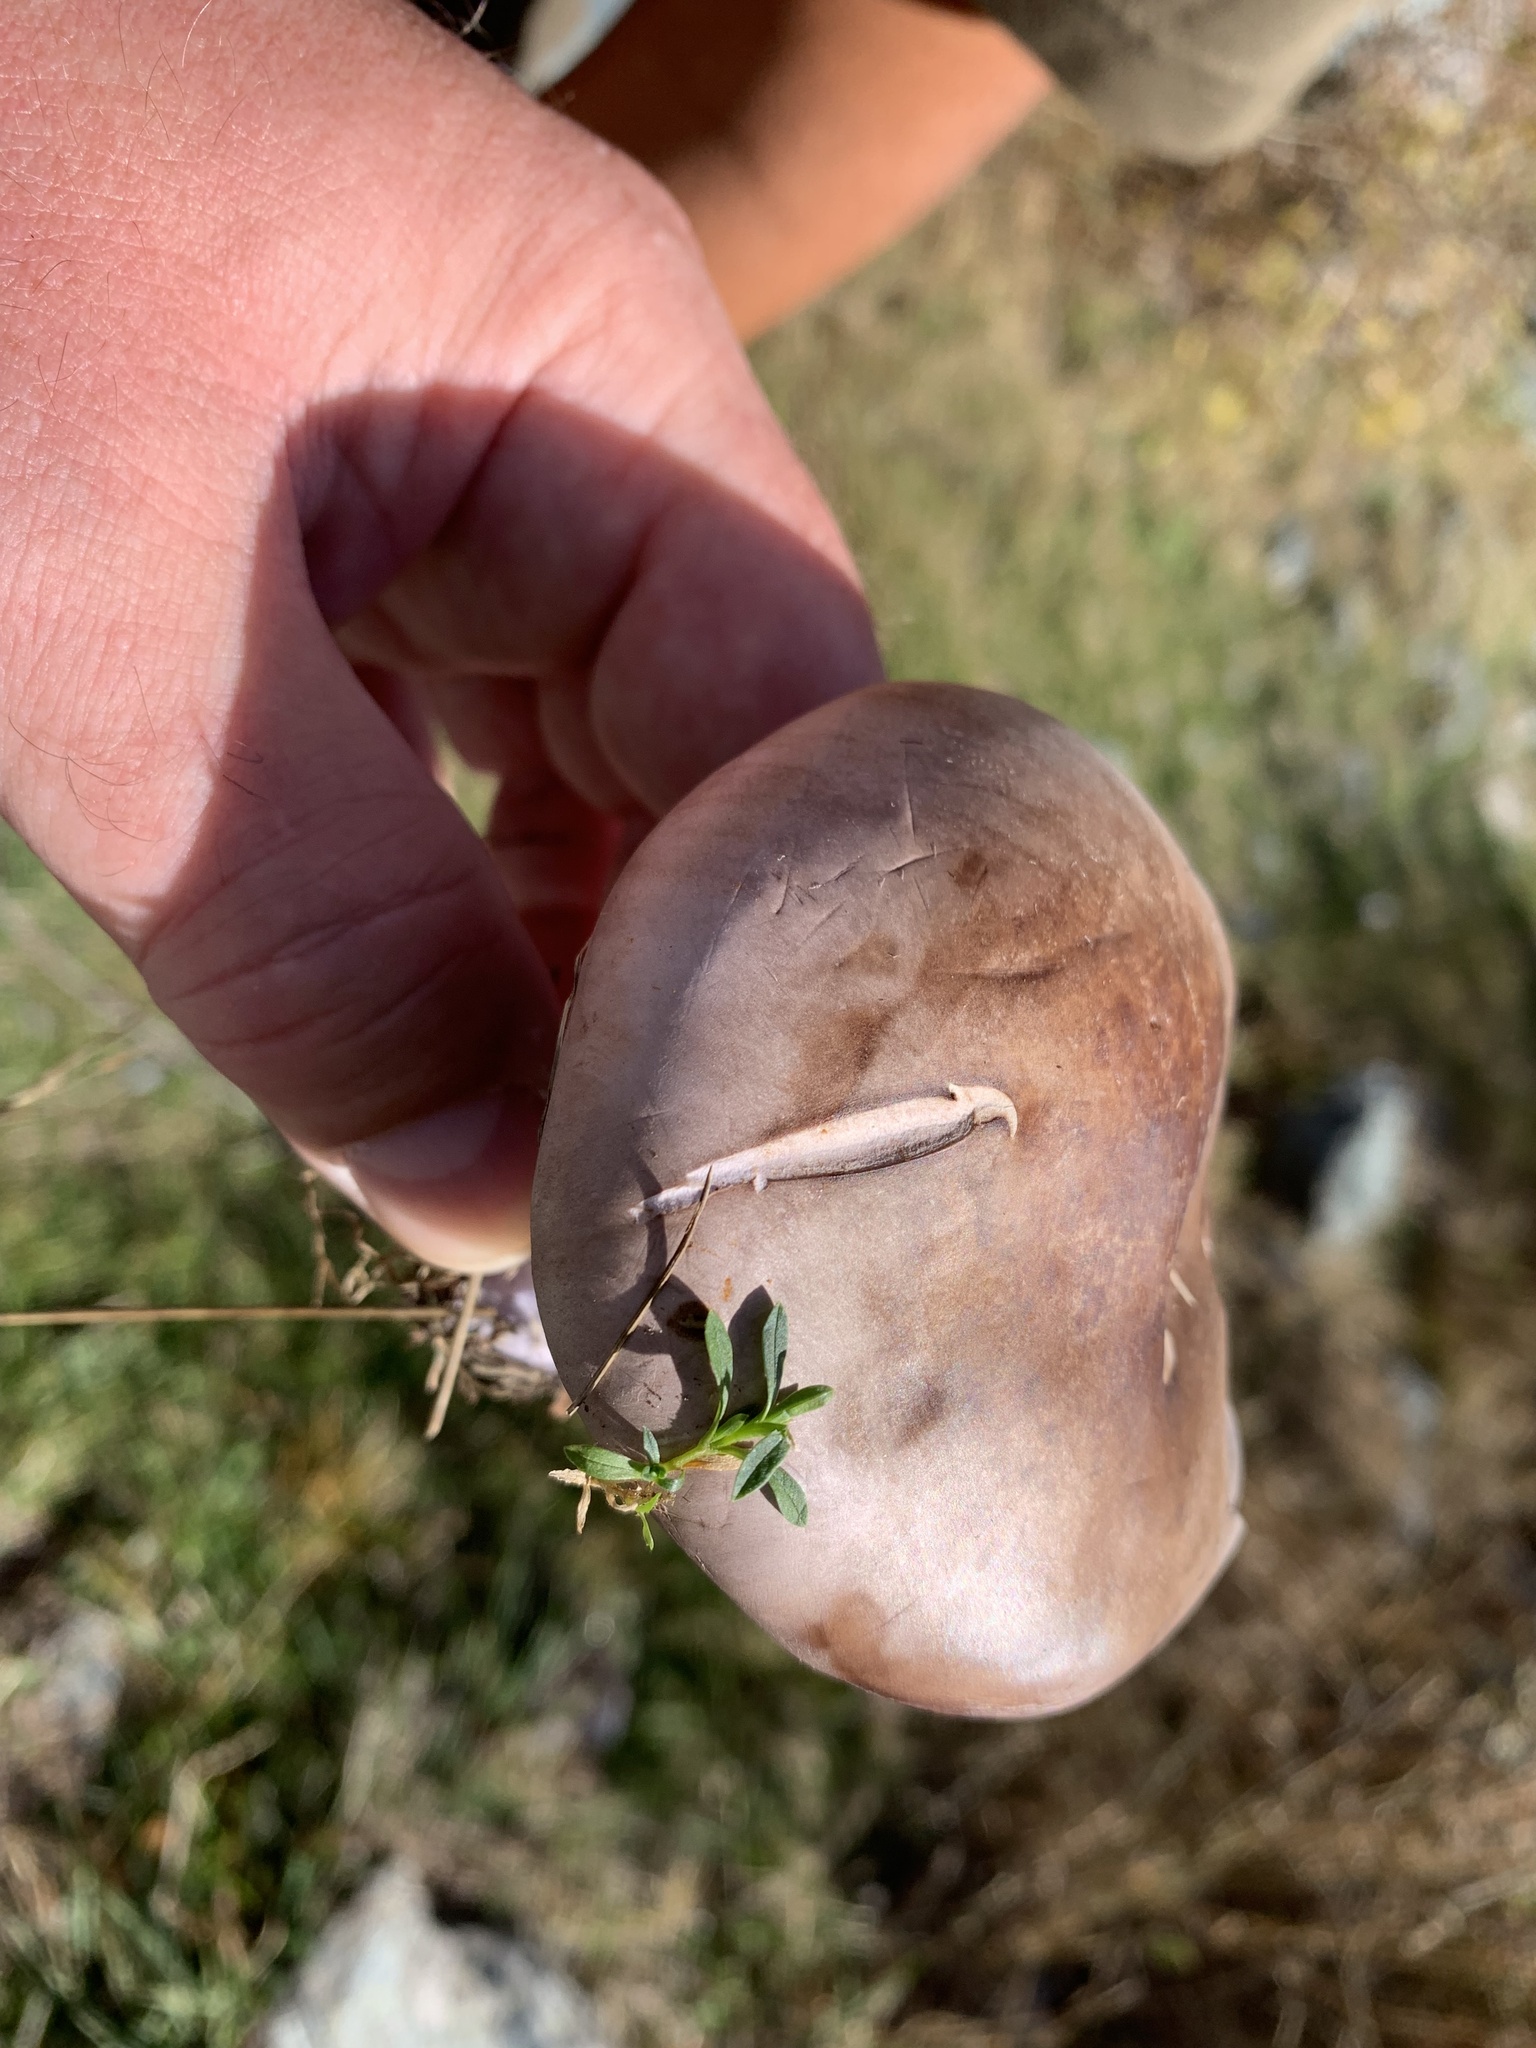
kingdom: Fungi
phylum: Basidiomycota
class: Agaricomycetes
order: Agaricales
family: Tricholomataceae
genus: Collybia
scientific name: Collybia
